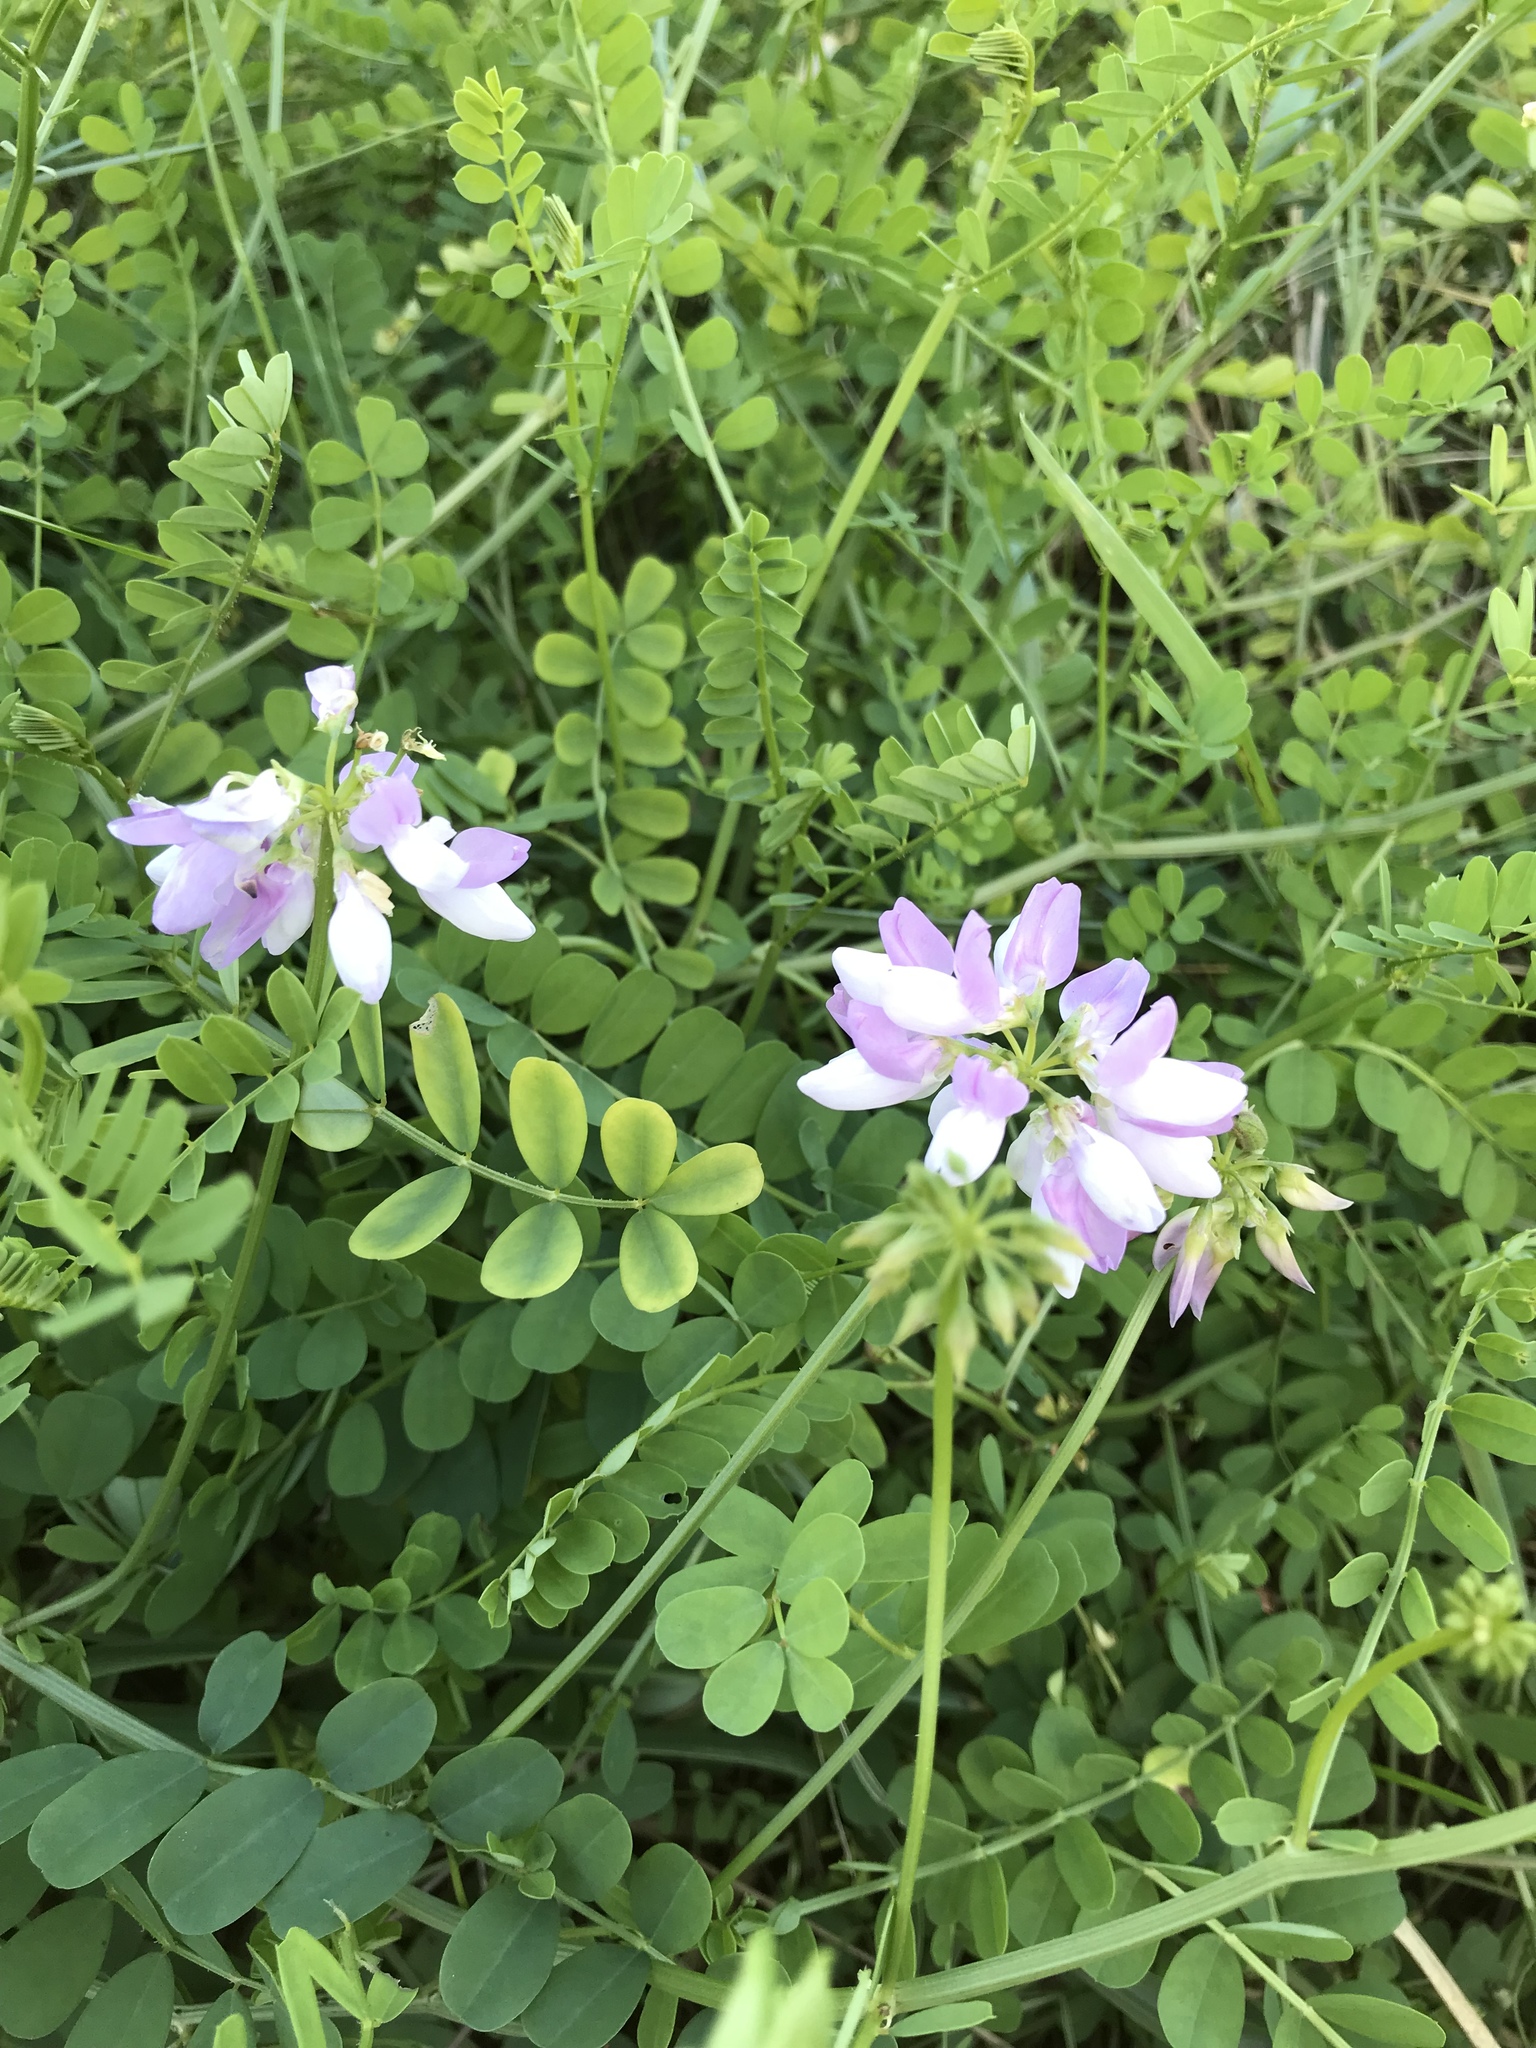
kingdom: Plantae
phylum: Tracheophyta
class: Magnoliopsida
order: Fabales
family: Fabaceae
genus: Coronilla
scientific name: Coronilla varia
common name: Crownvetch
